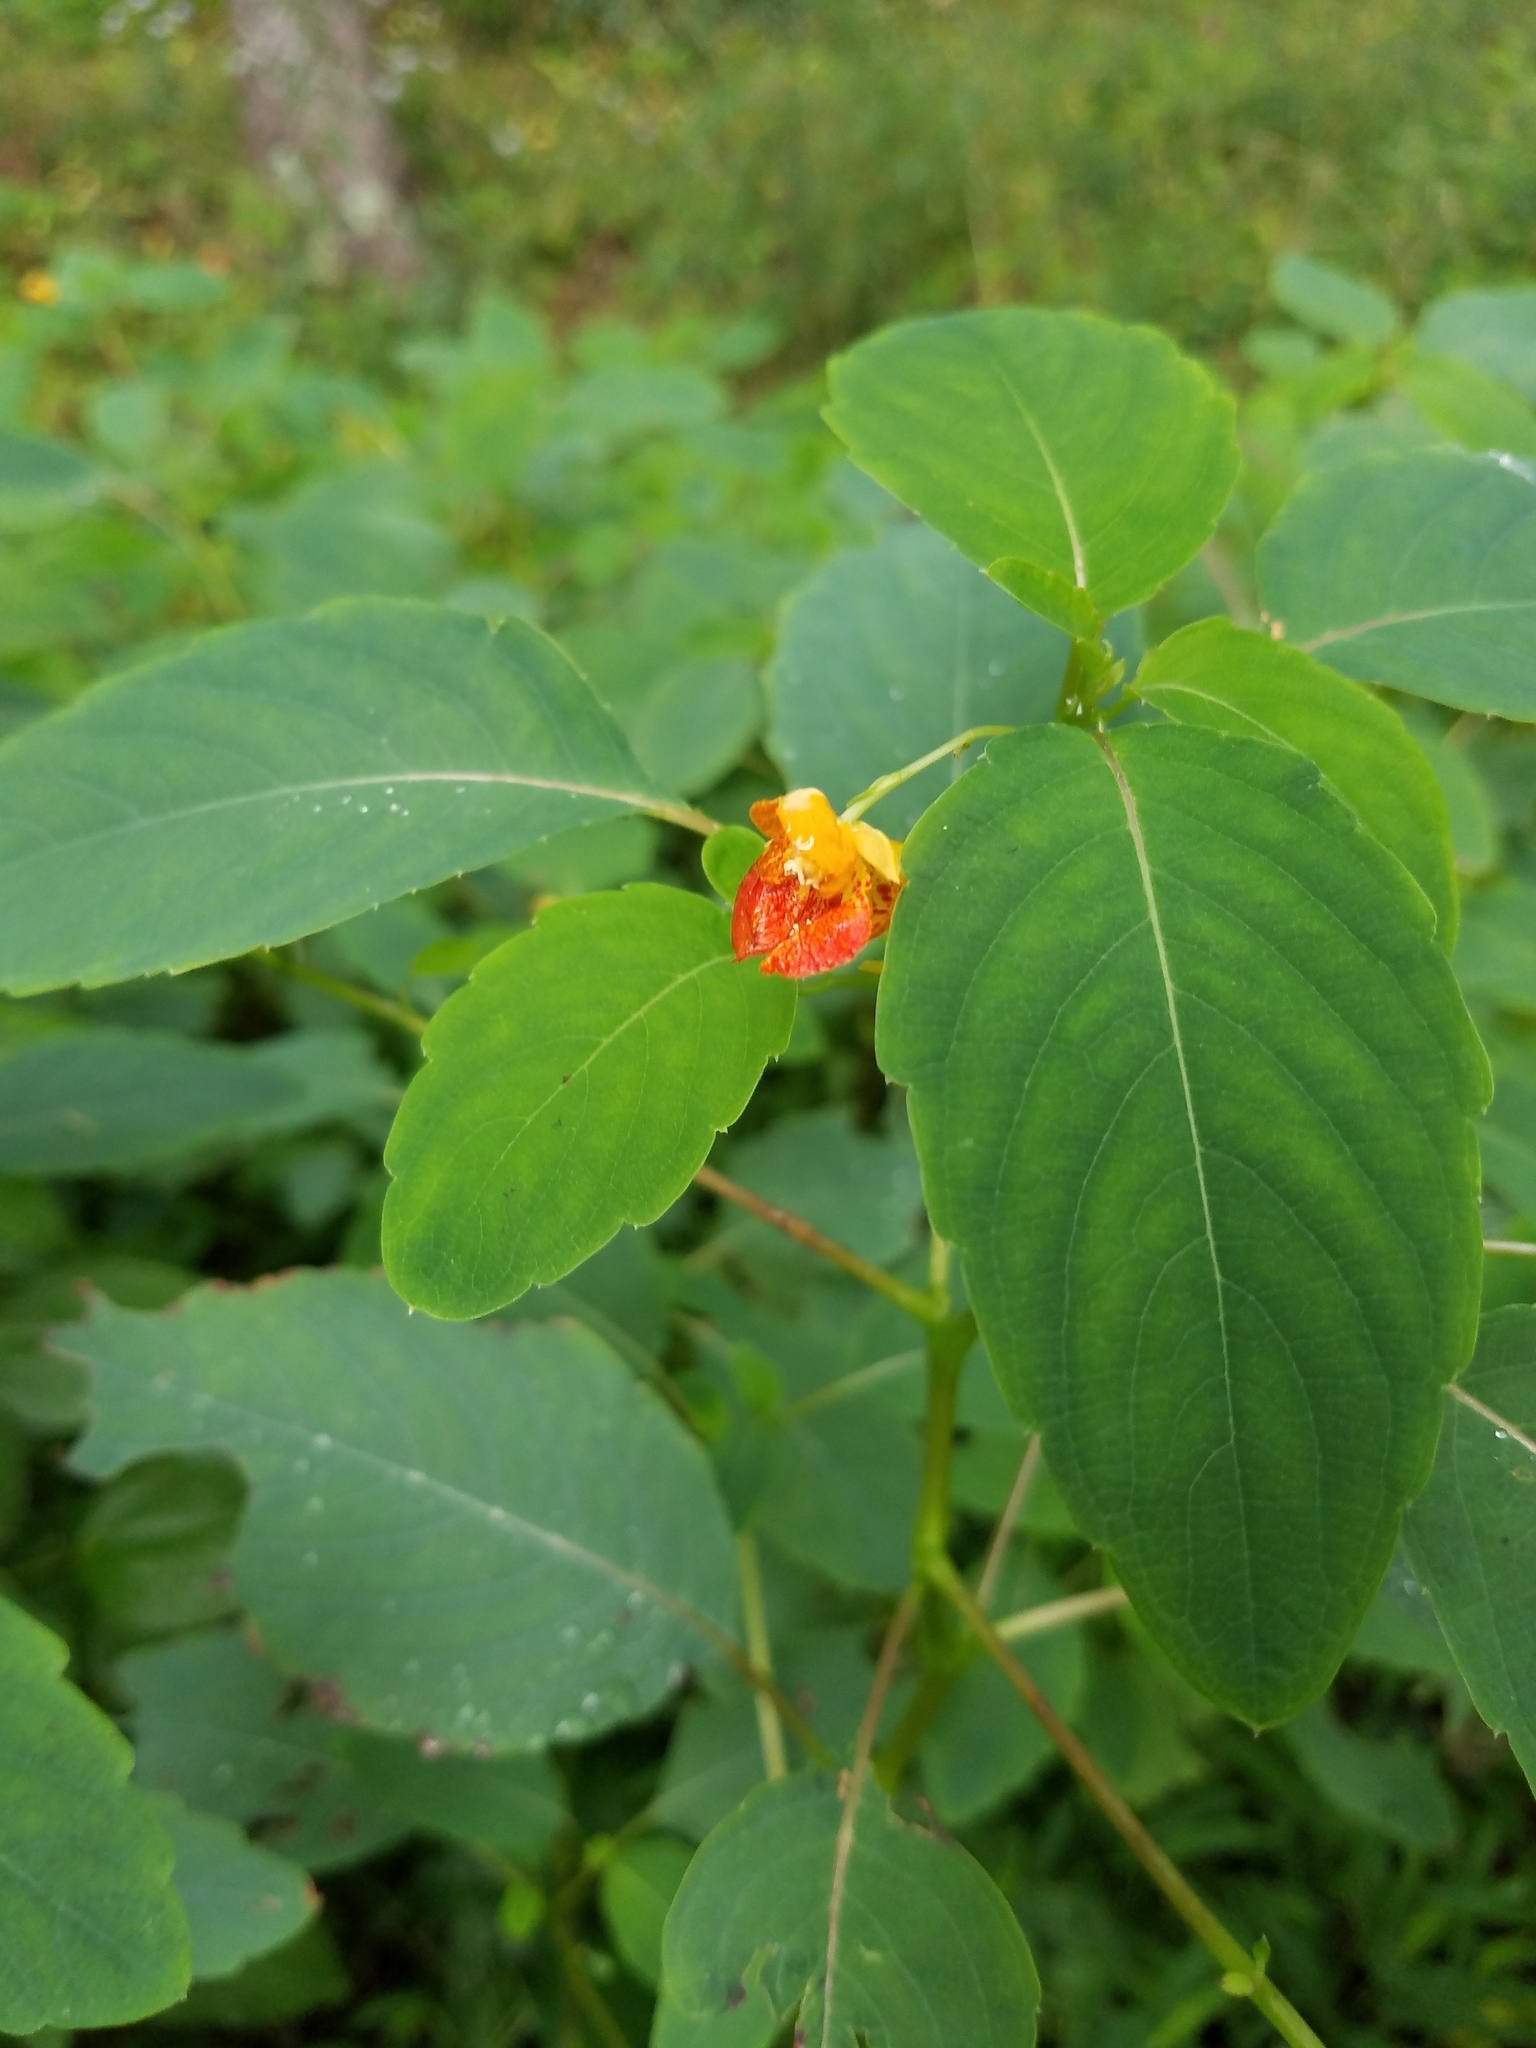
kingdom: Plantae
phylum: Tracheophyta
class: Magnoliopsida
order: Ericales
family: Balsaminaceae
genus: Impatiens
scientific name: Impatiens capensis
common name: Orange balsam
